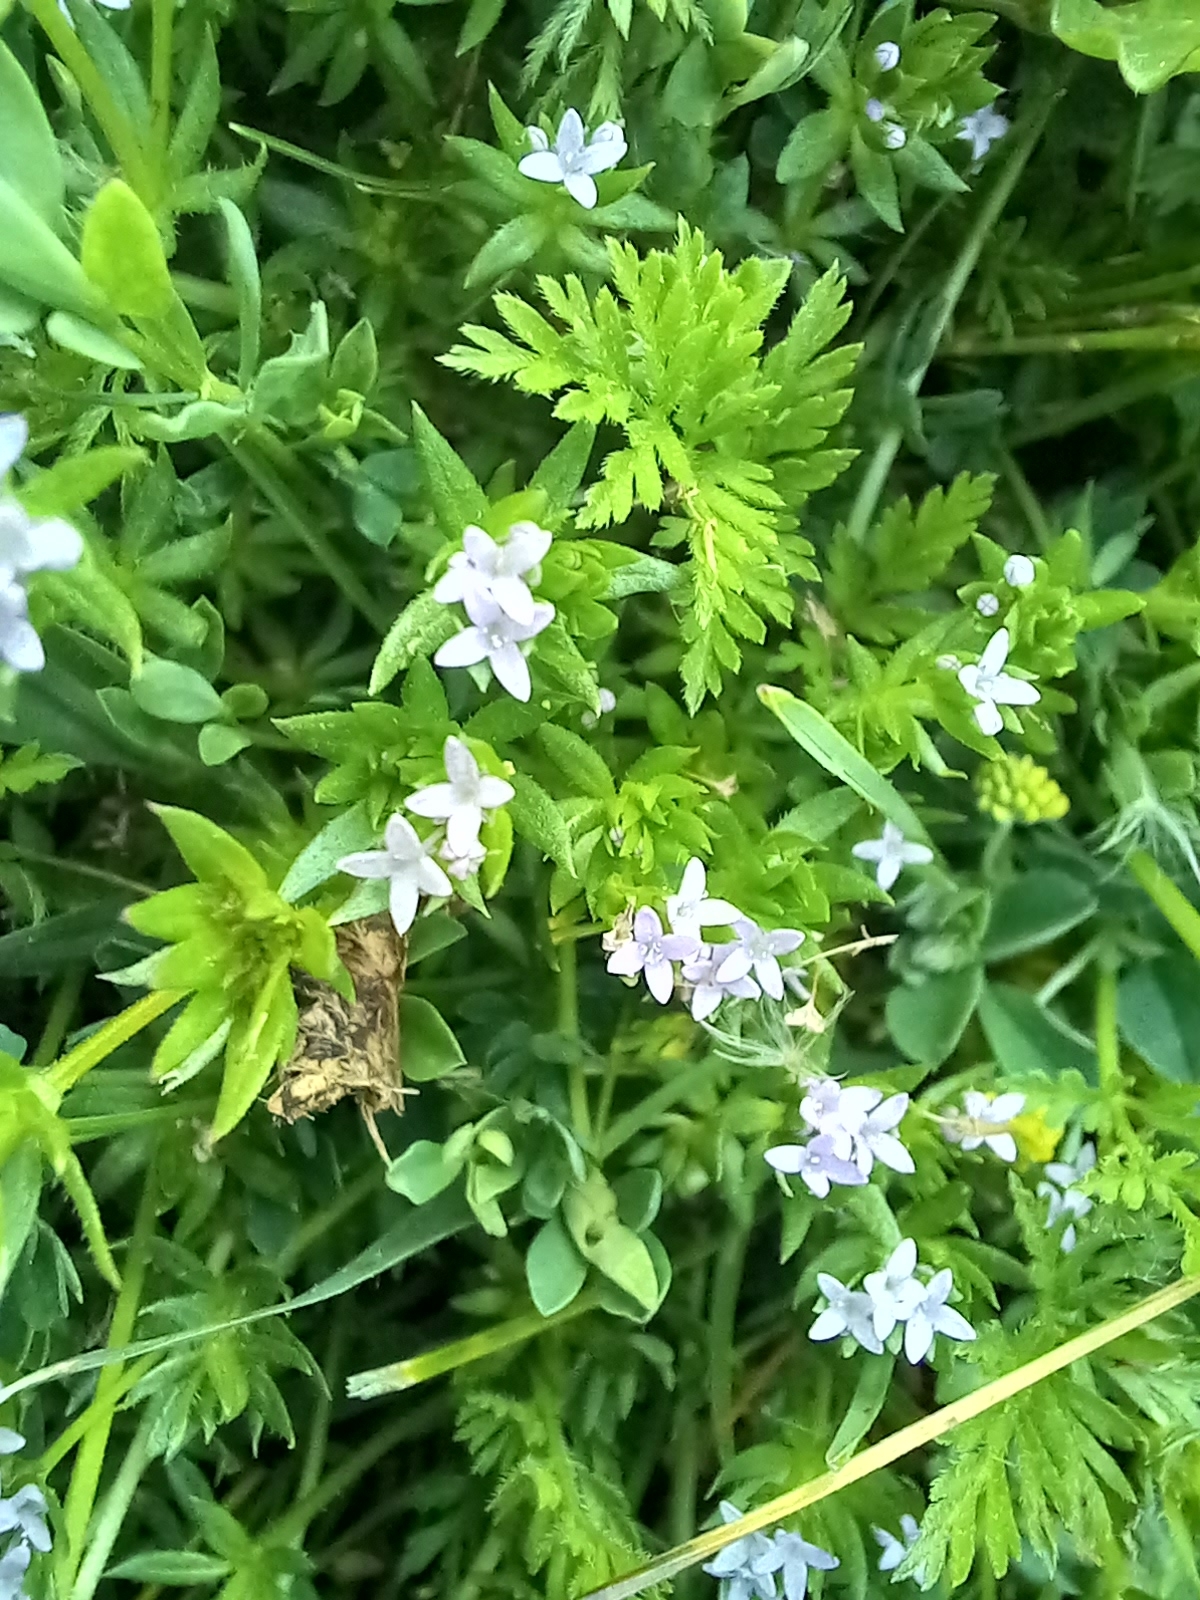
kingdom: Plantae
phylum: Tracheophyta
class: Magnoliopsida
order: Gentianales
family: Rubiaceae
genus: Sherardia
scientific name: Sherardia arvensis
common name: Field madder
